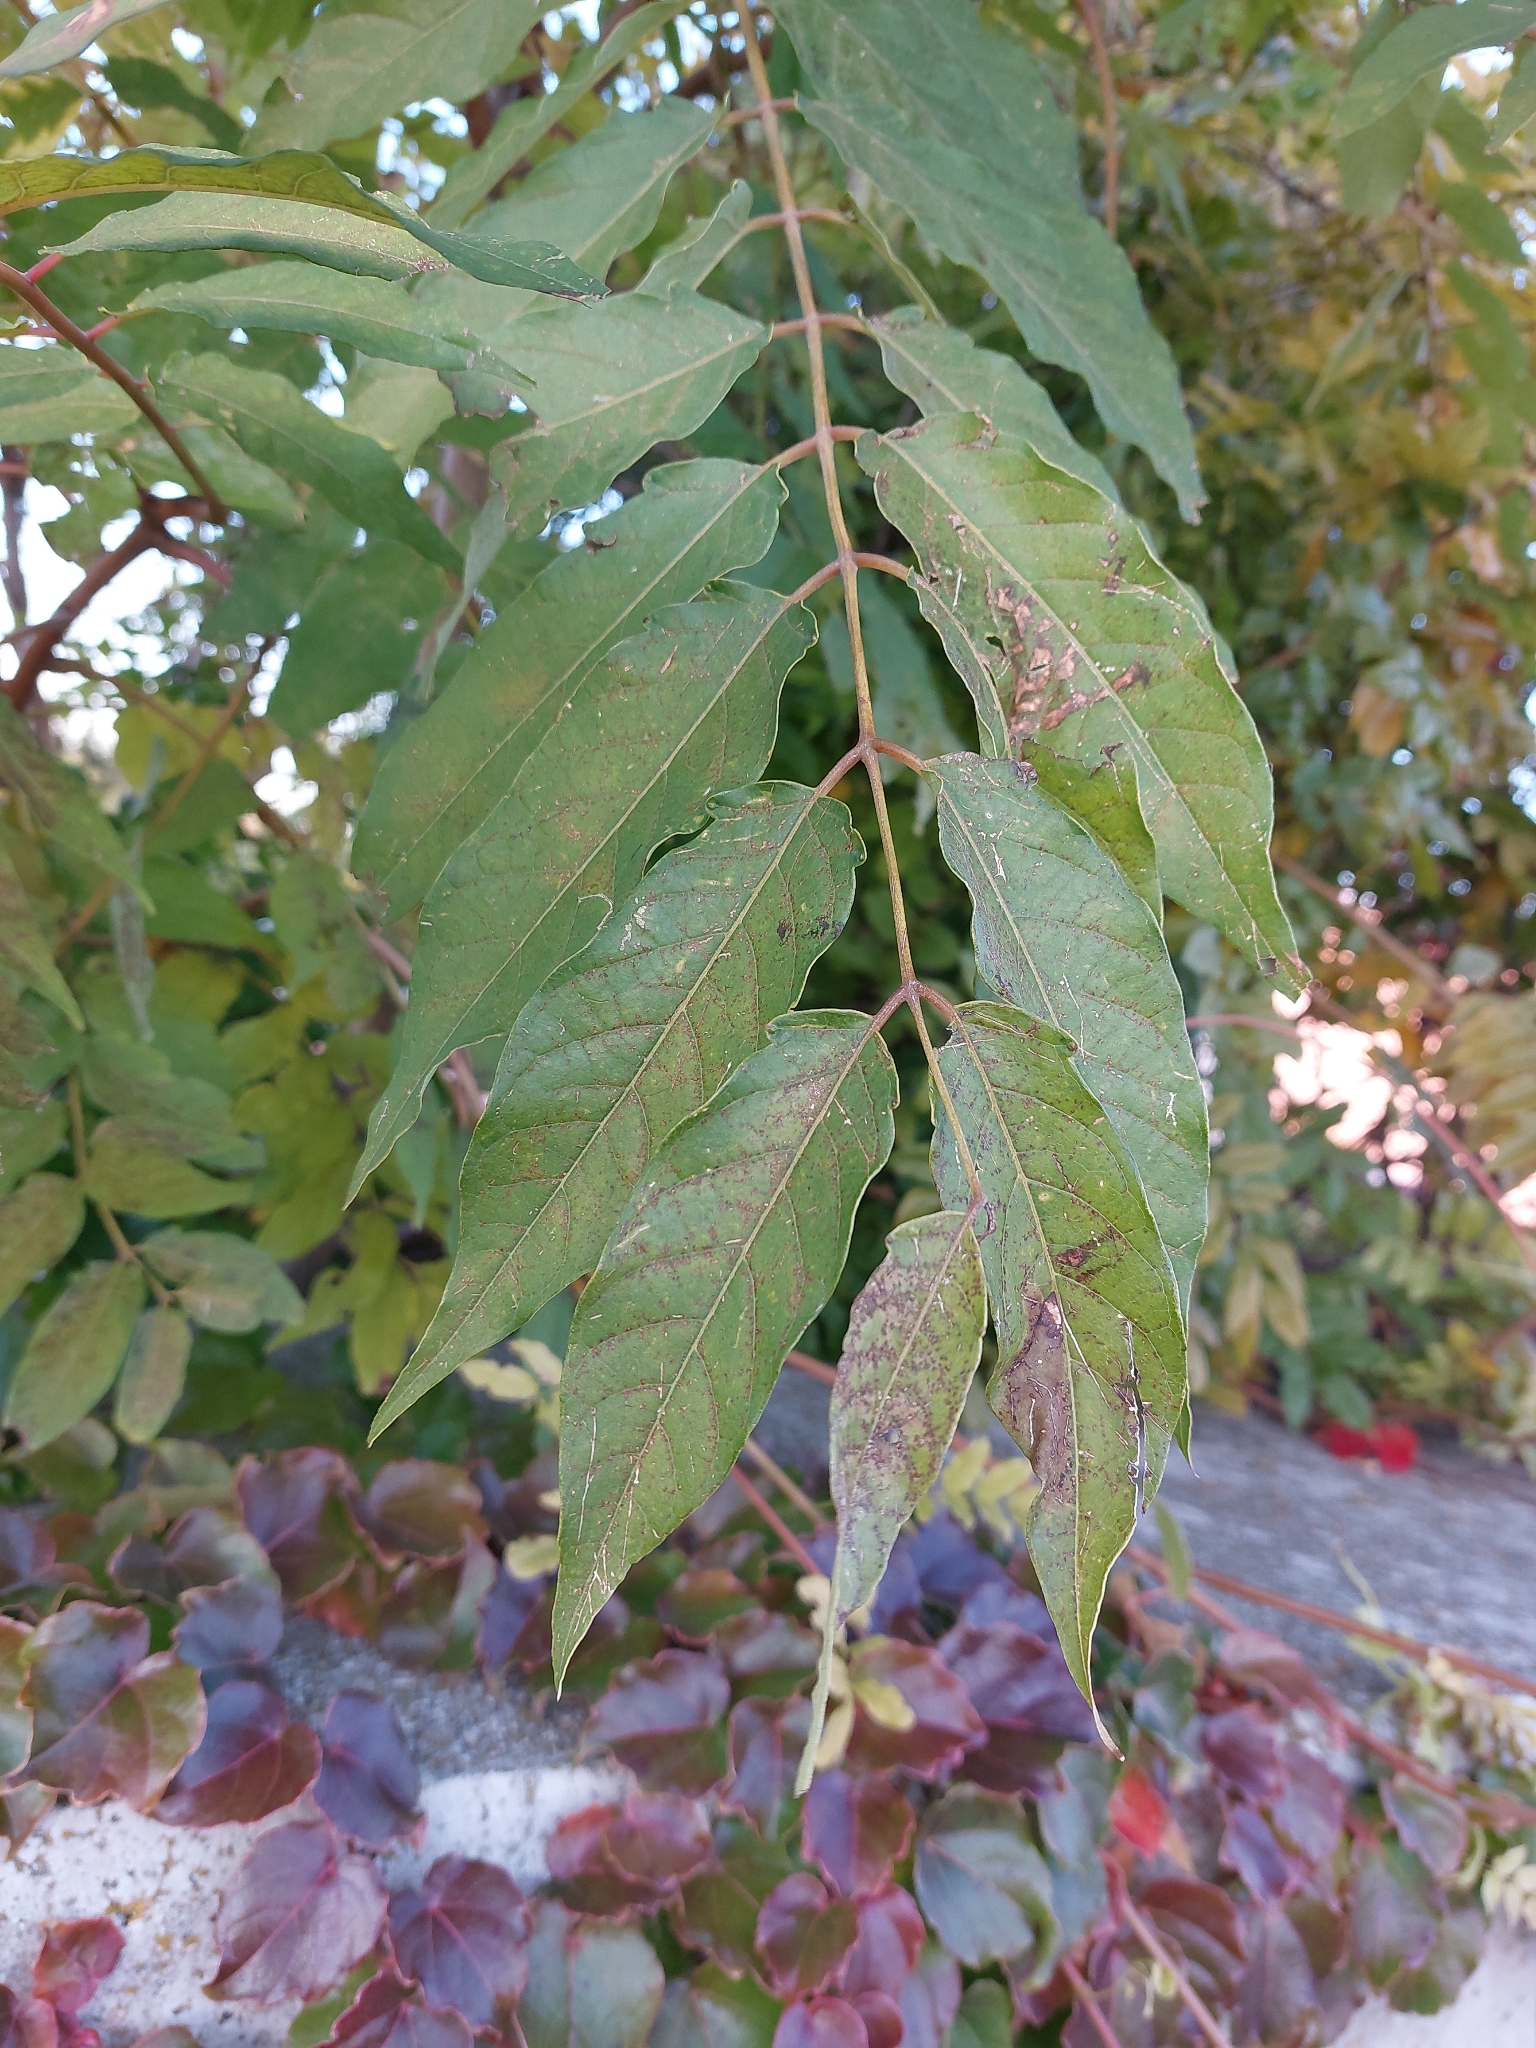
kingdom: Plantae
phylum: Tracheophyta
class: Magnoliopsida
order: Sapindales
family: Simaroubaceae
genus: Ailanthus
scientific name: Ailanthus altissima
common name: Tree-of-heaven
